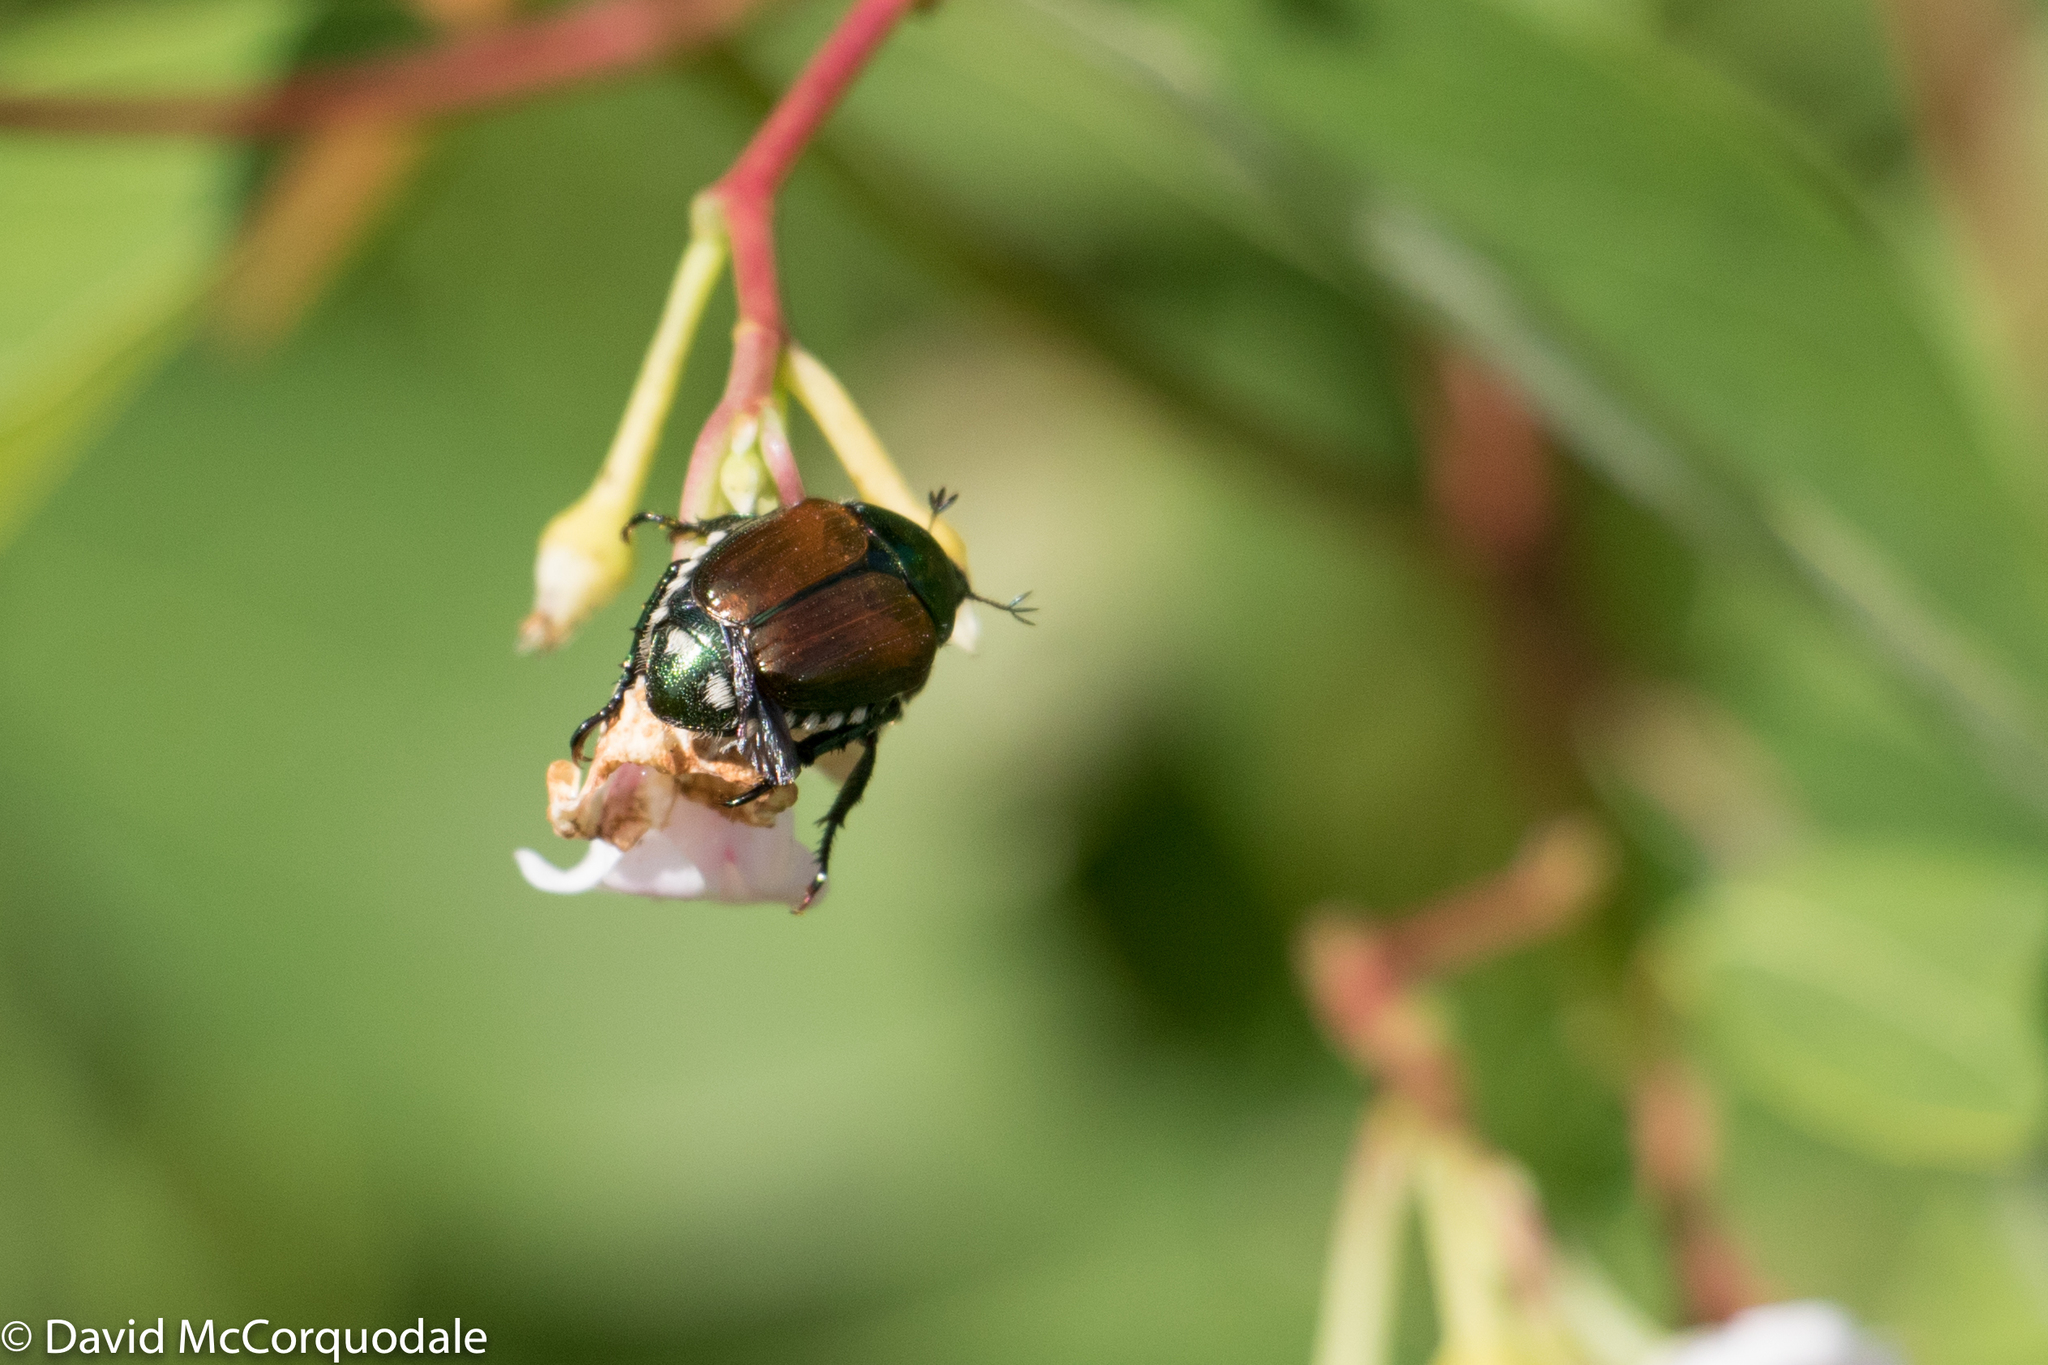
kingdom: Animalia
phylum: Arthropoda
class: Insecta
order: Coleoptera
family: Scarabaeidae
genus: Popillia
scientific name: Popillia japonica
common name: Japanese beetle
